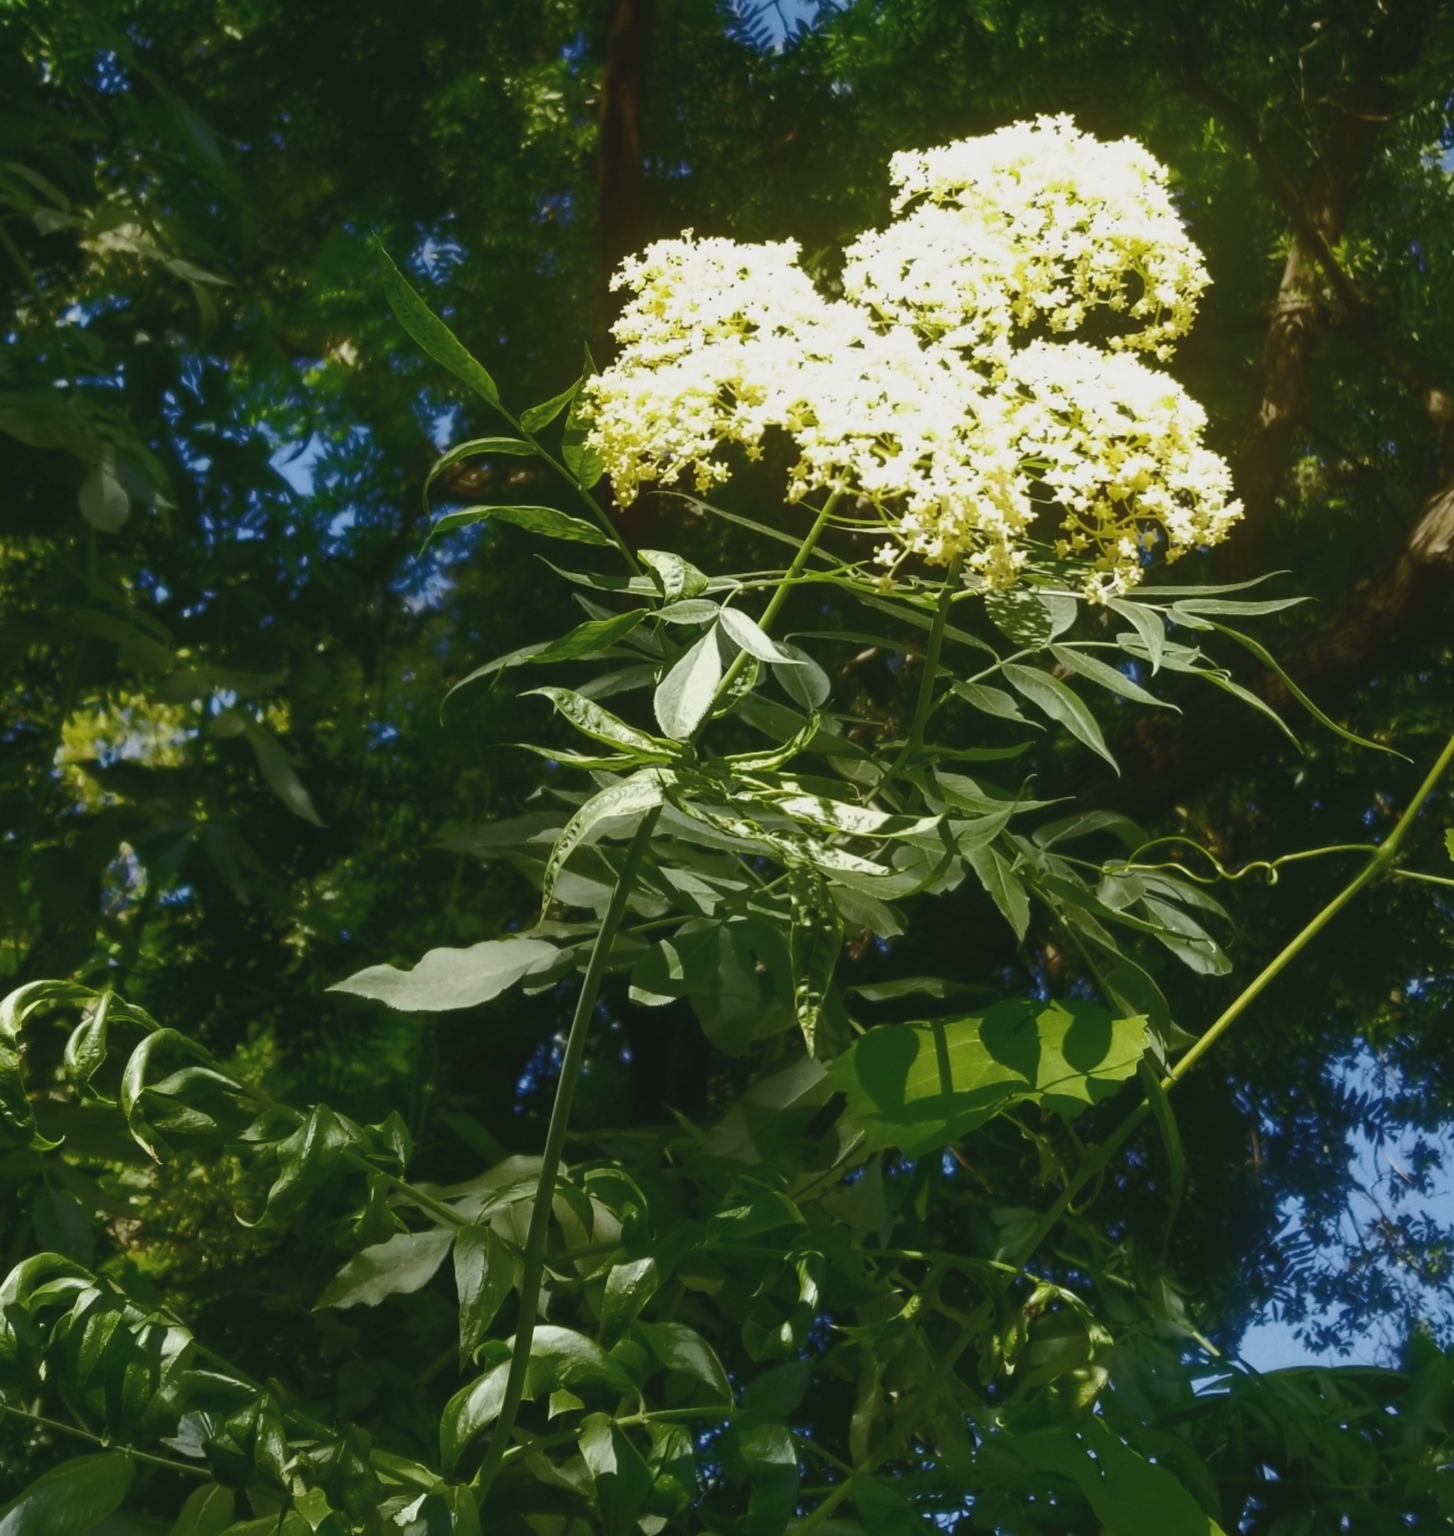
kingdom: Plantae
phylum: Tracheophyta
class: Magnoliopsida
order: Dipsacales
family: Viburnaceae
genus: Sambucus
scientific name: Sambucus cerulea
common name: Blue elder
